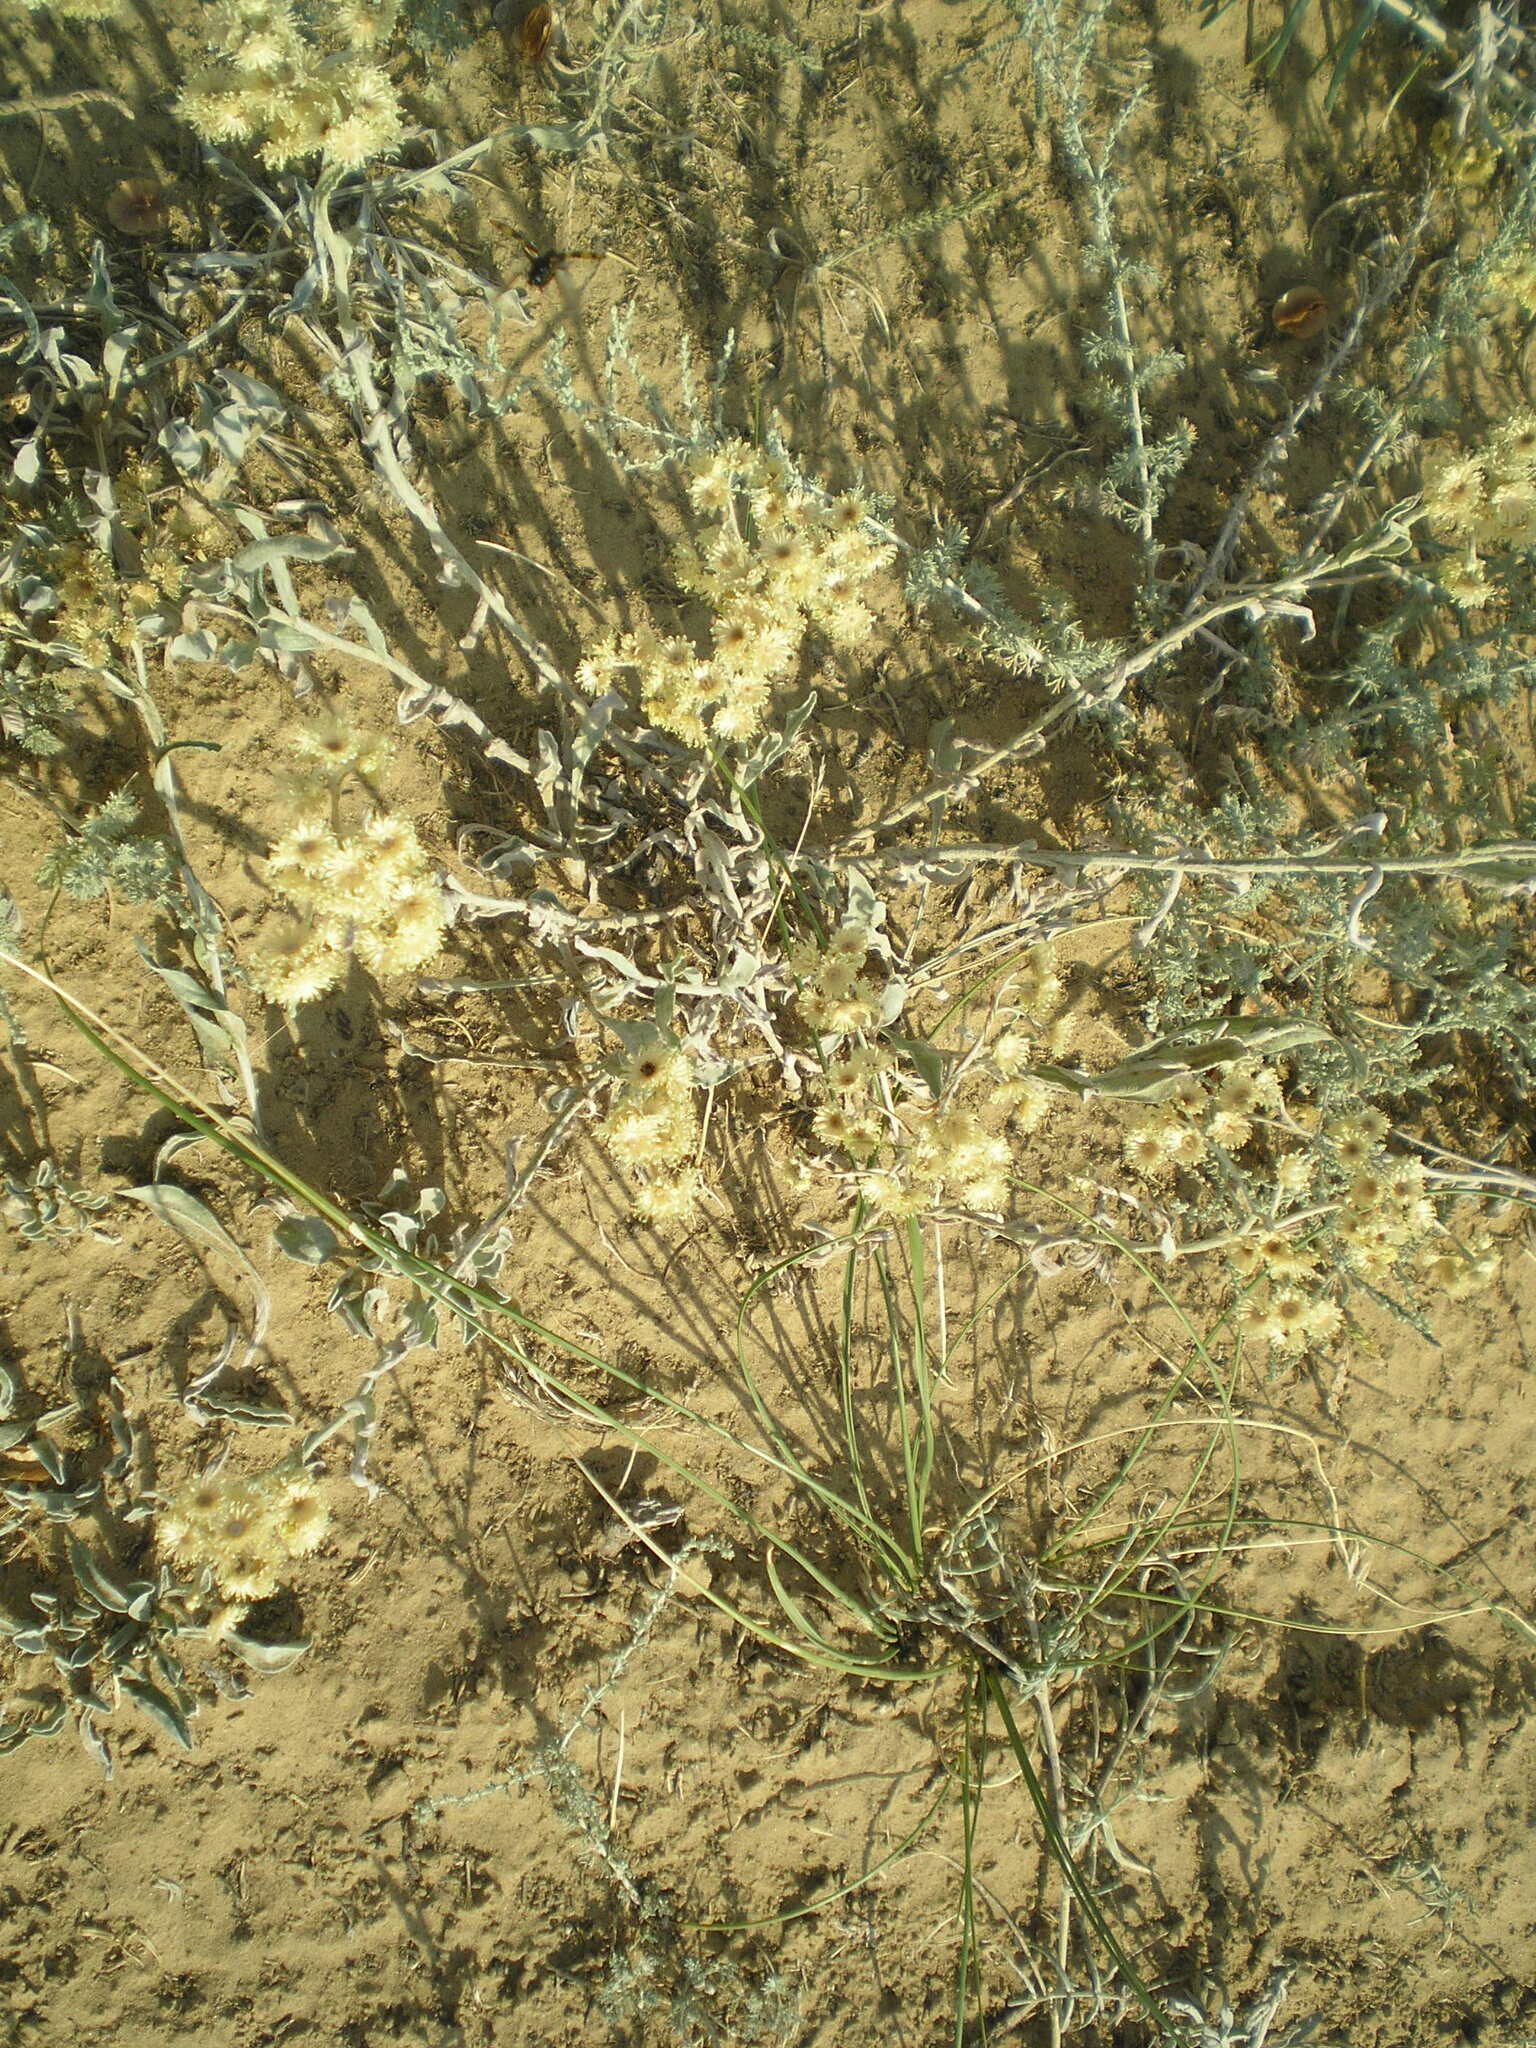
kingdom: Plantae
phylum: Tracheophyta
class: Magnoliopsida
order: Asterales
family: Asteraceae
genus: Helichrysum
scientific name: Helichrysum arenarium
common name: Strawflower
